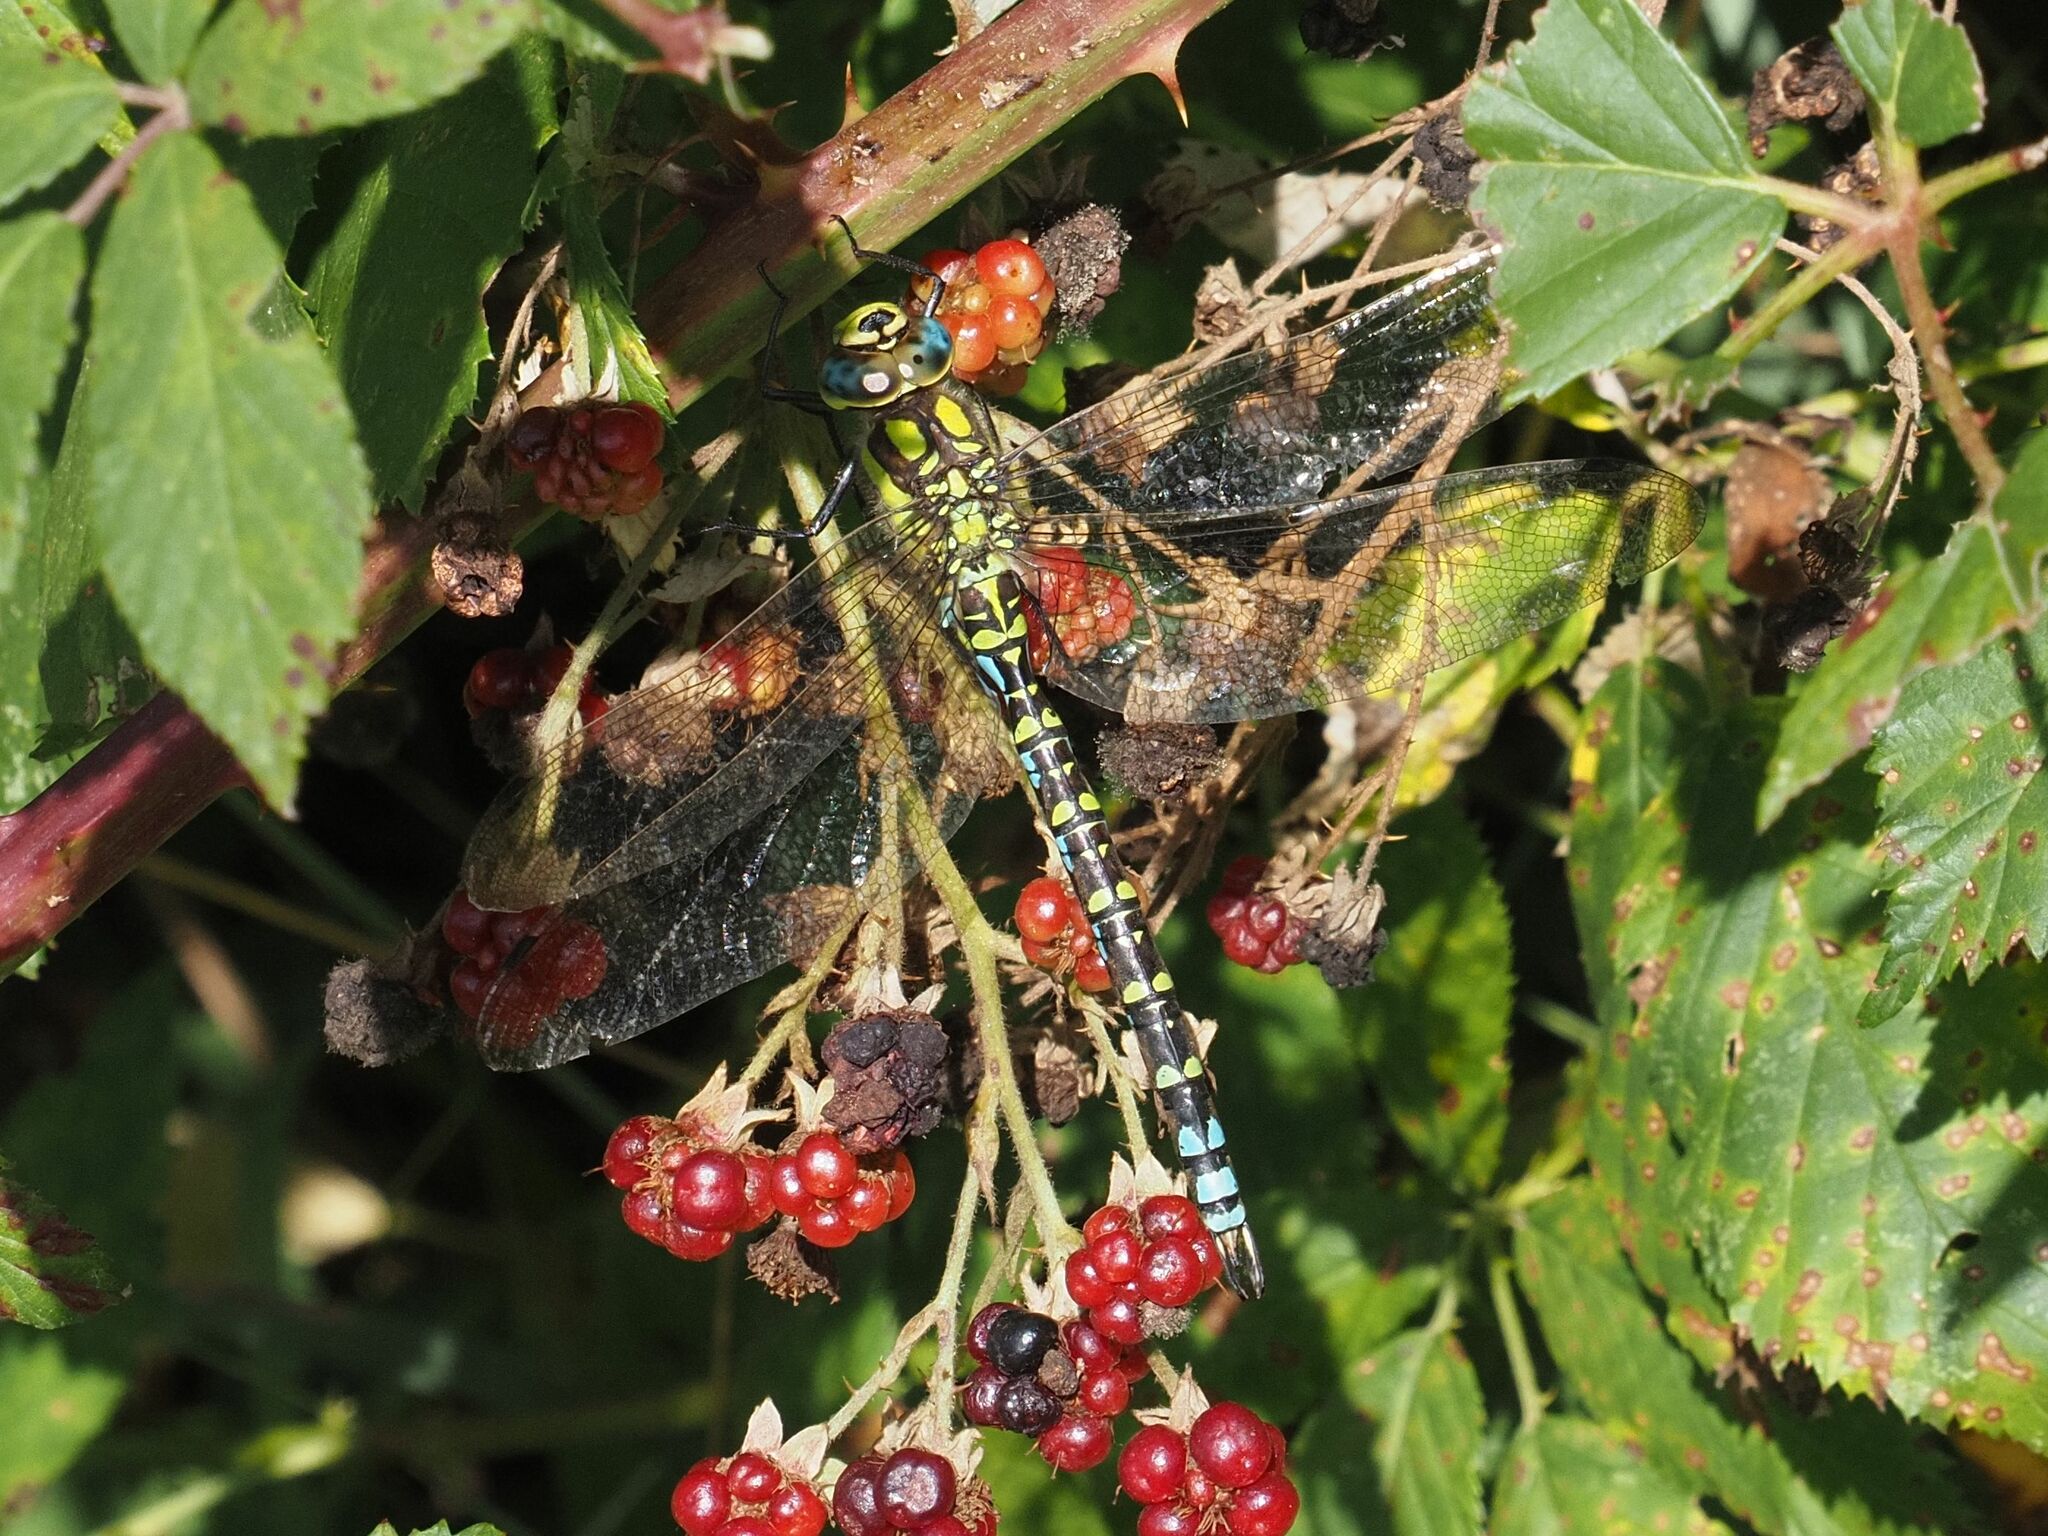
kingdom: Animalia
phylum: Arthropoda
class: Insecta
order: Odonata
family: Aeshnidae
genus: Aeshna
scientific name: Aeshna cyanea
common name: Southern hawker
